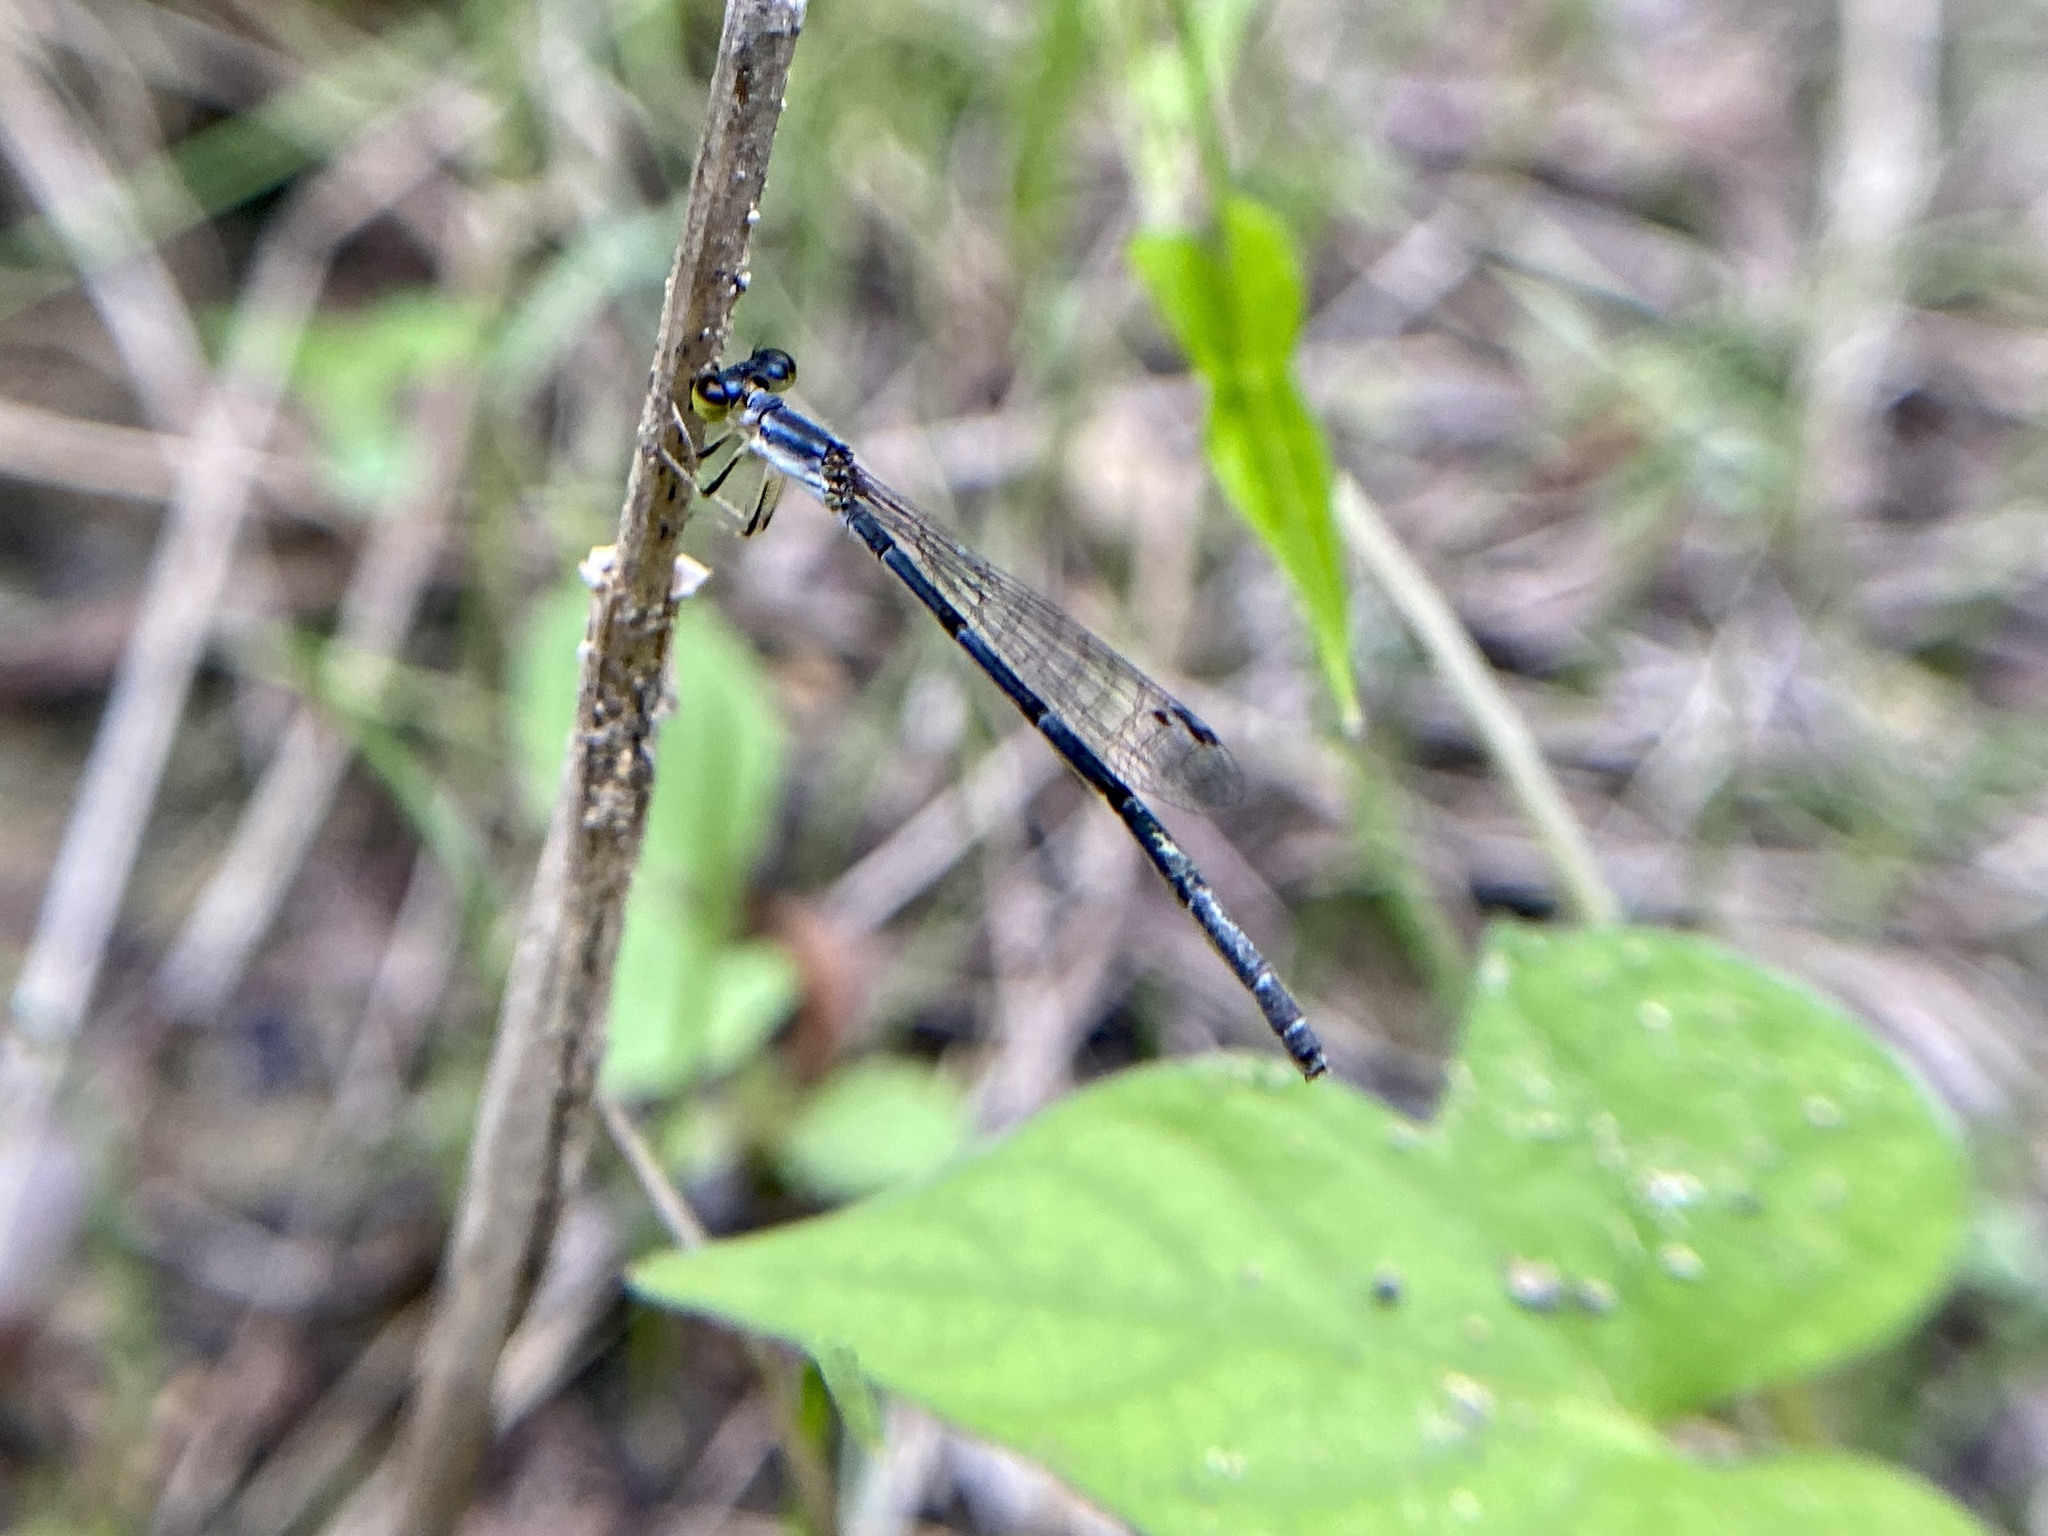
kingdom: Animalia
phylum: Arthropoda
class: Insecta
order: Odonata
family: Coenagrionidae
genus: Ischnura
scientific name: Ischnura posita
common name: Fragile forktail
